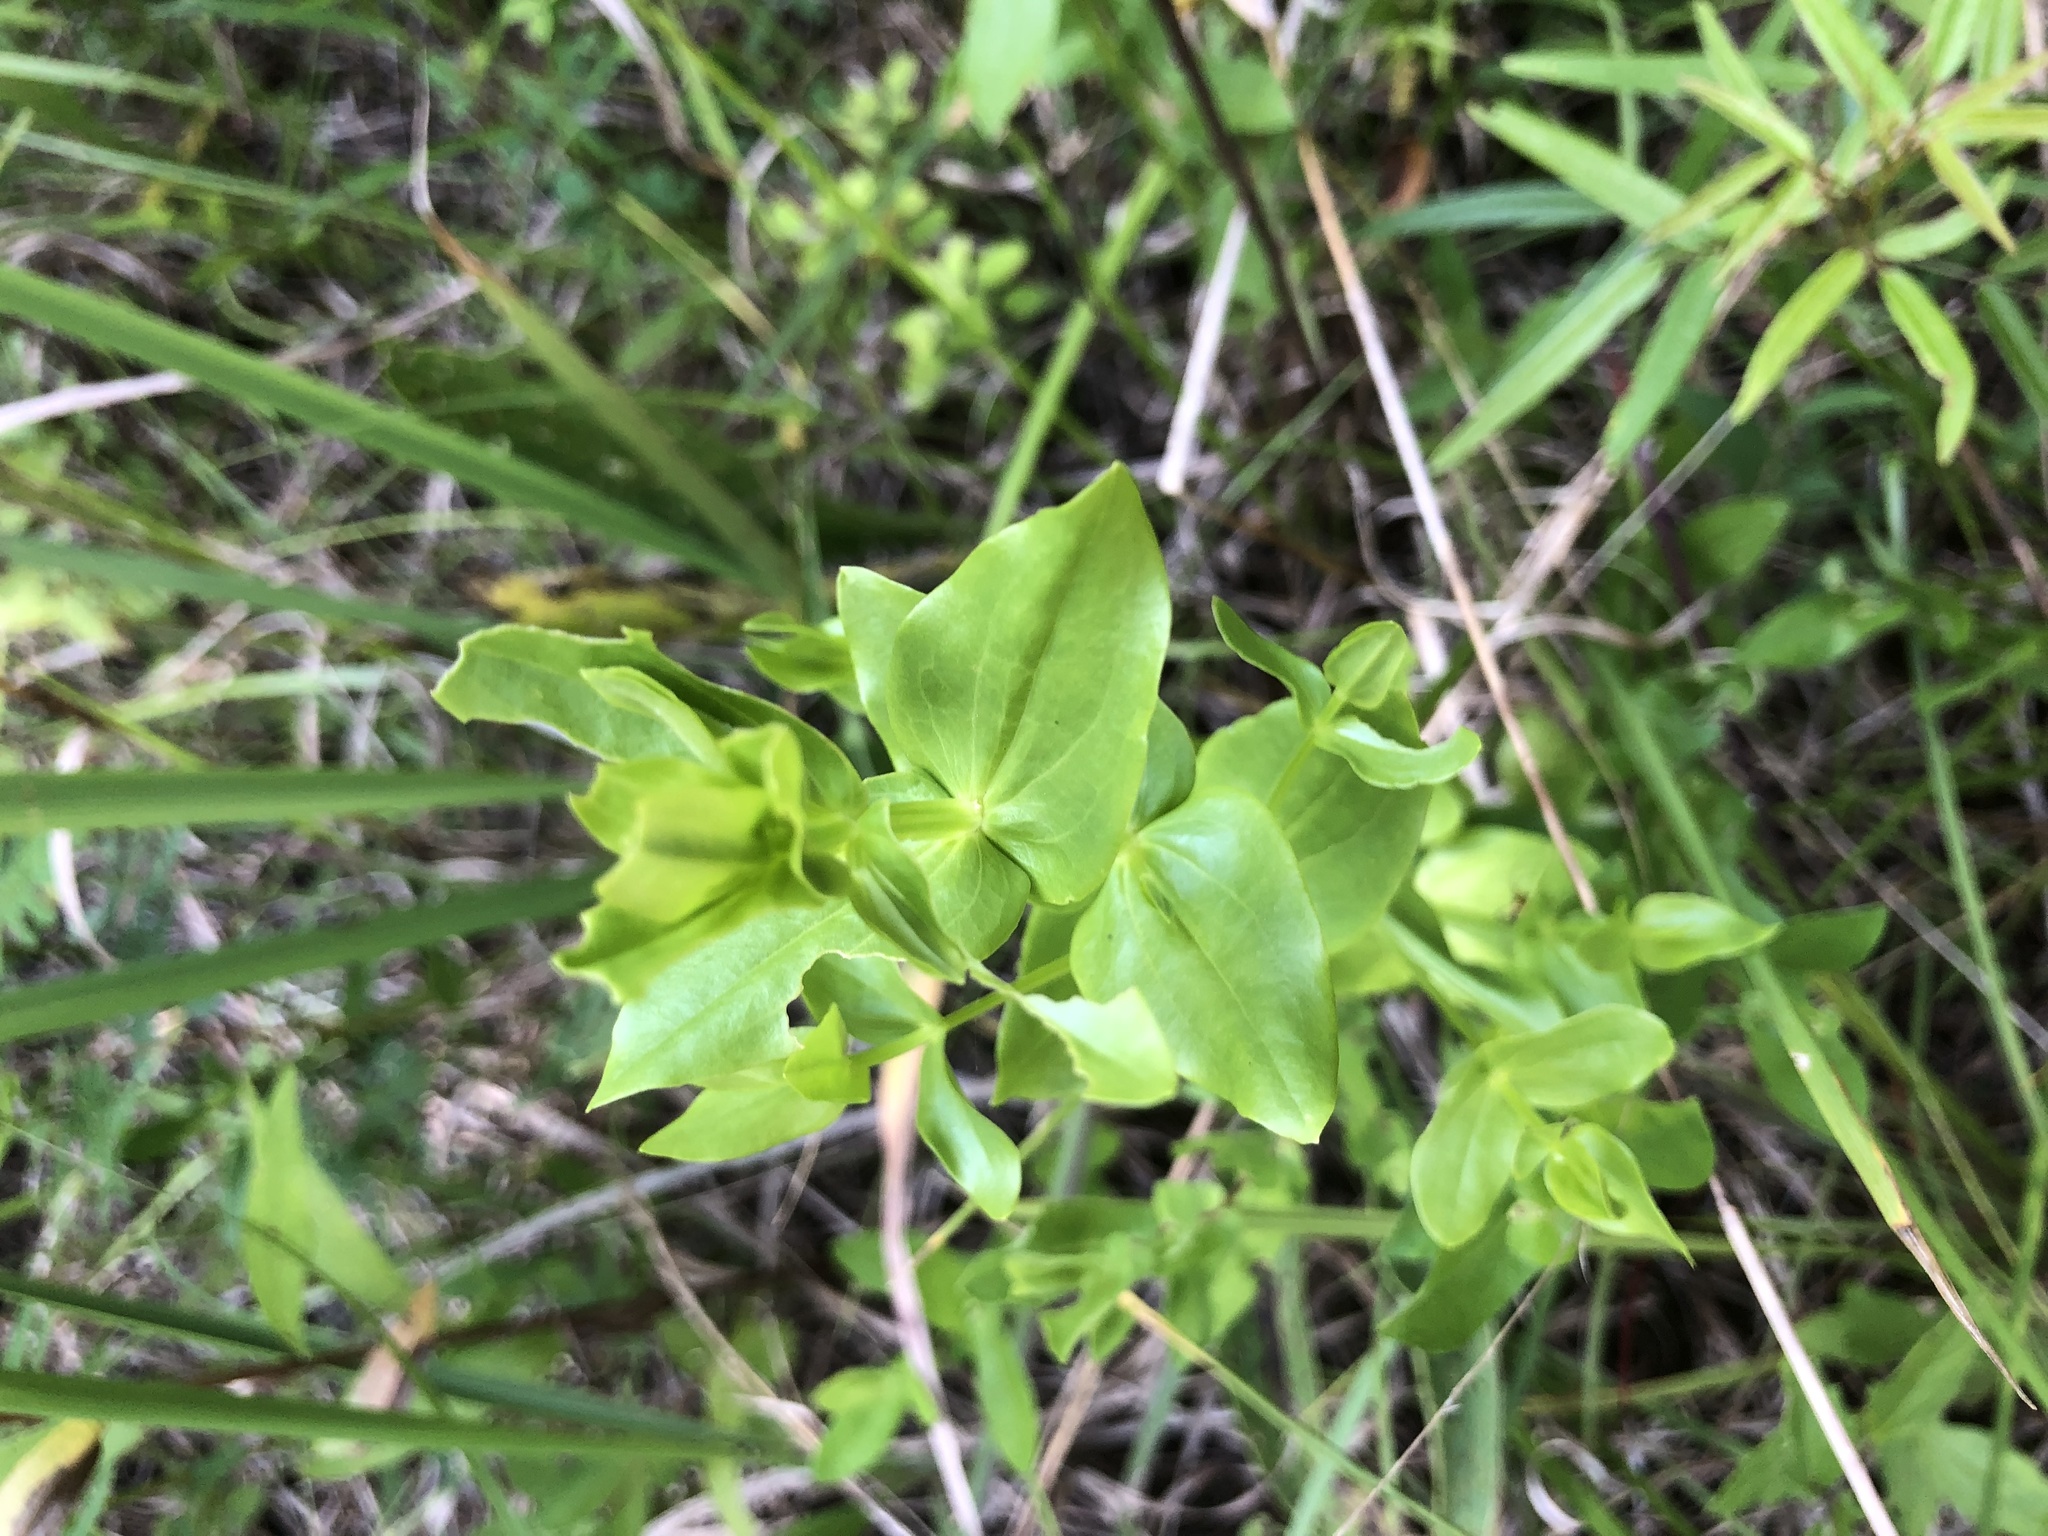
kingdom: Plantae
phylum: Tracheophyta
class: Magnoliopsida
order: Gentianales
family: Gentianaceae
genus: Sabatia
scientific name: Sabatia angularis
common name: Rose-pink
